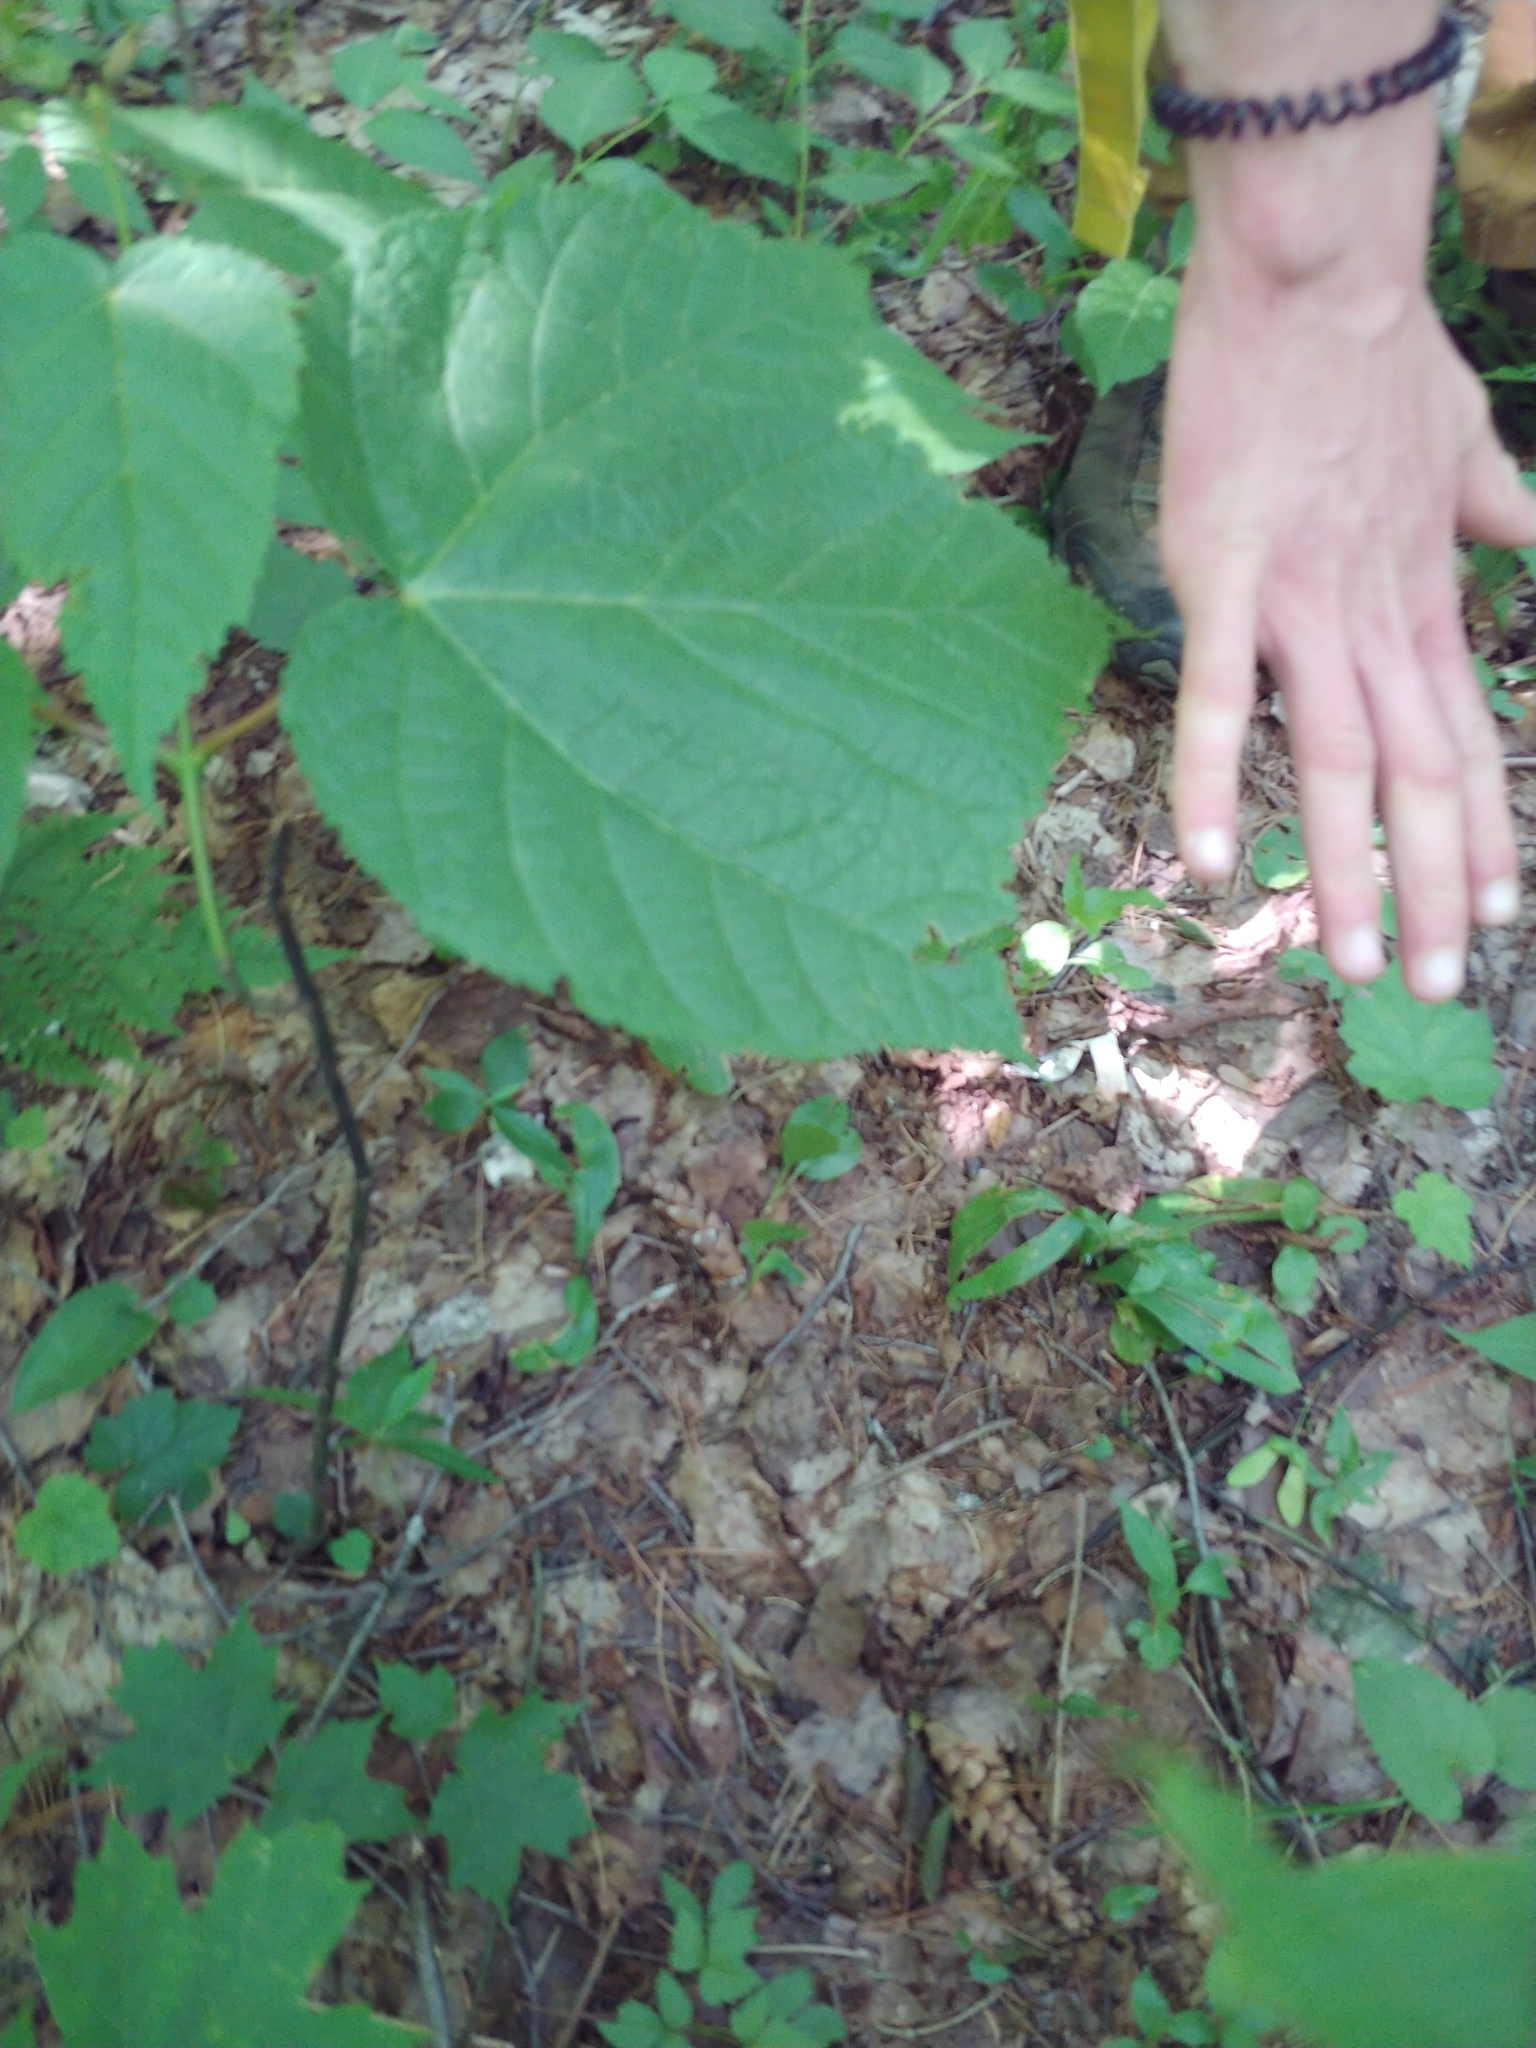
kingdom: Plantae
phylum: Tracheophyta
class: Magnoliopsida
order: Sapindales
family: Sapindaceae
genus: Acer
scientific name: Acer pensylvanicum
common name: Moosewood
